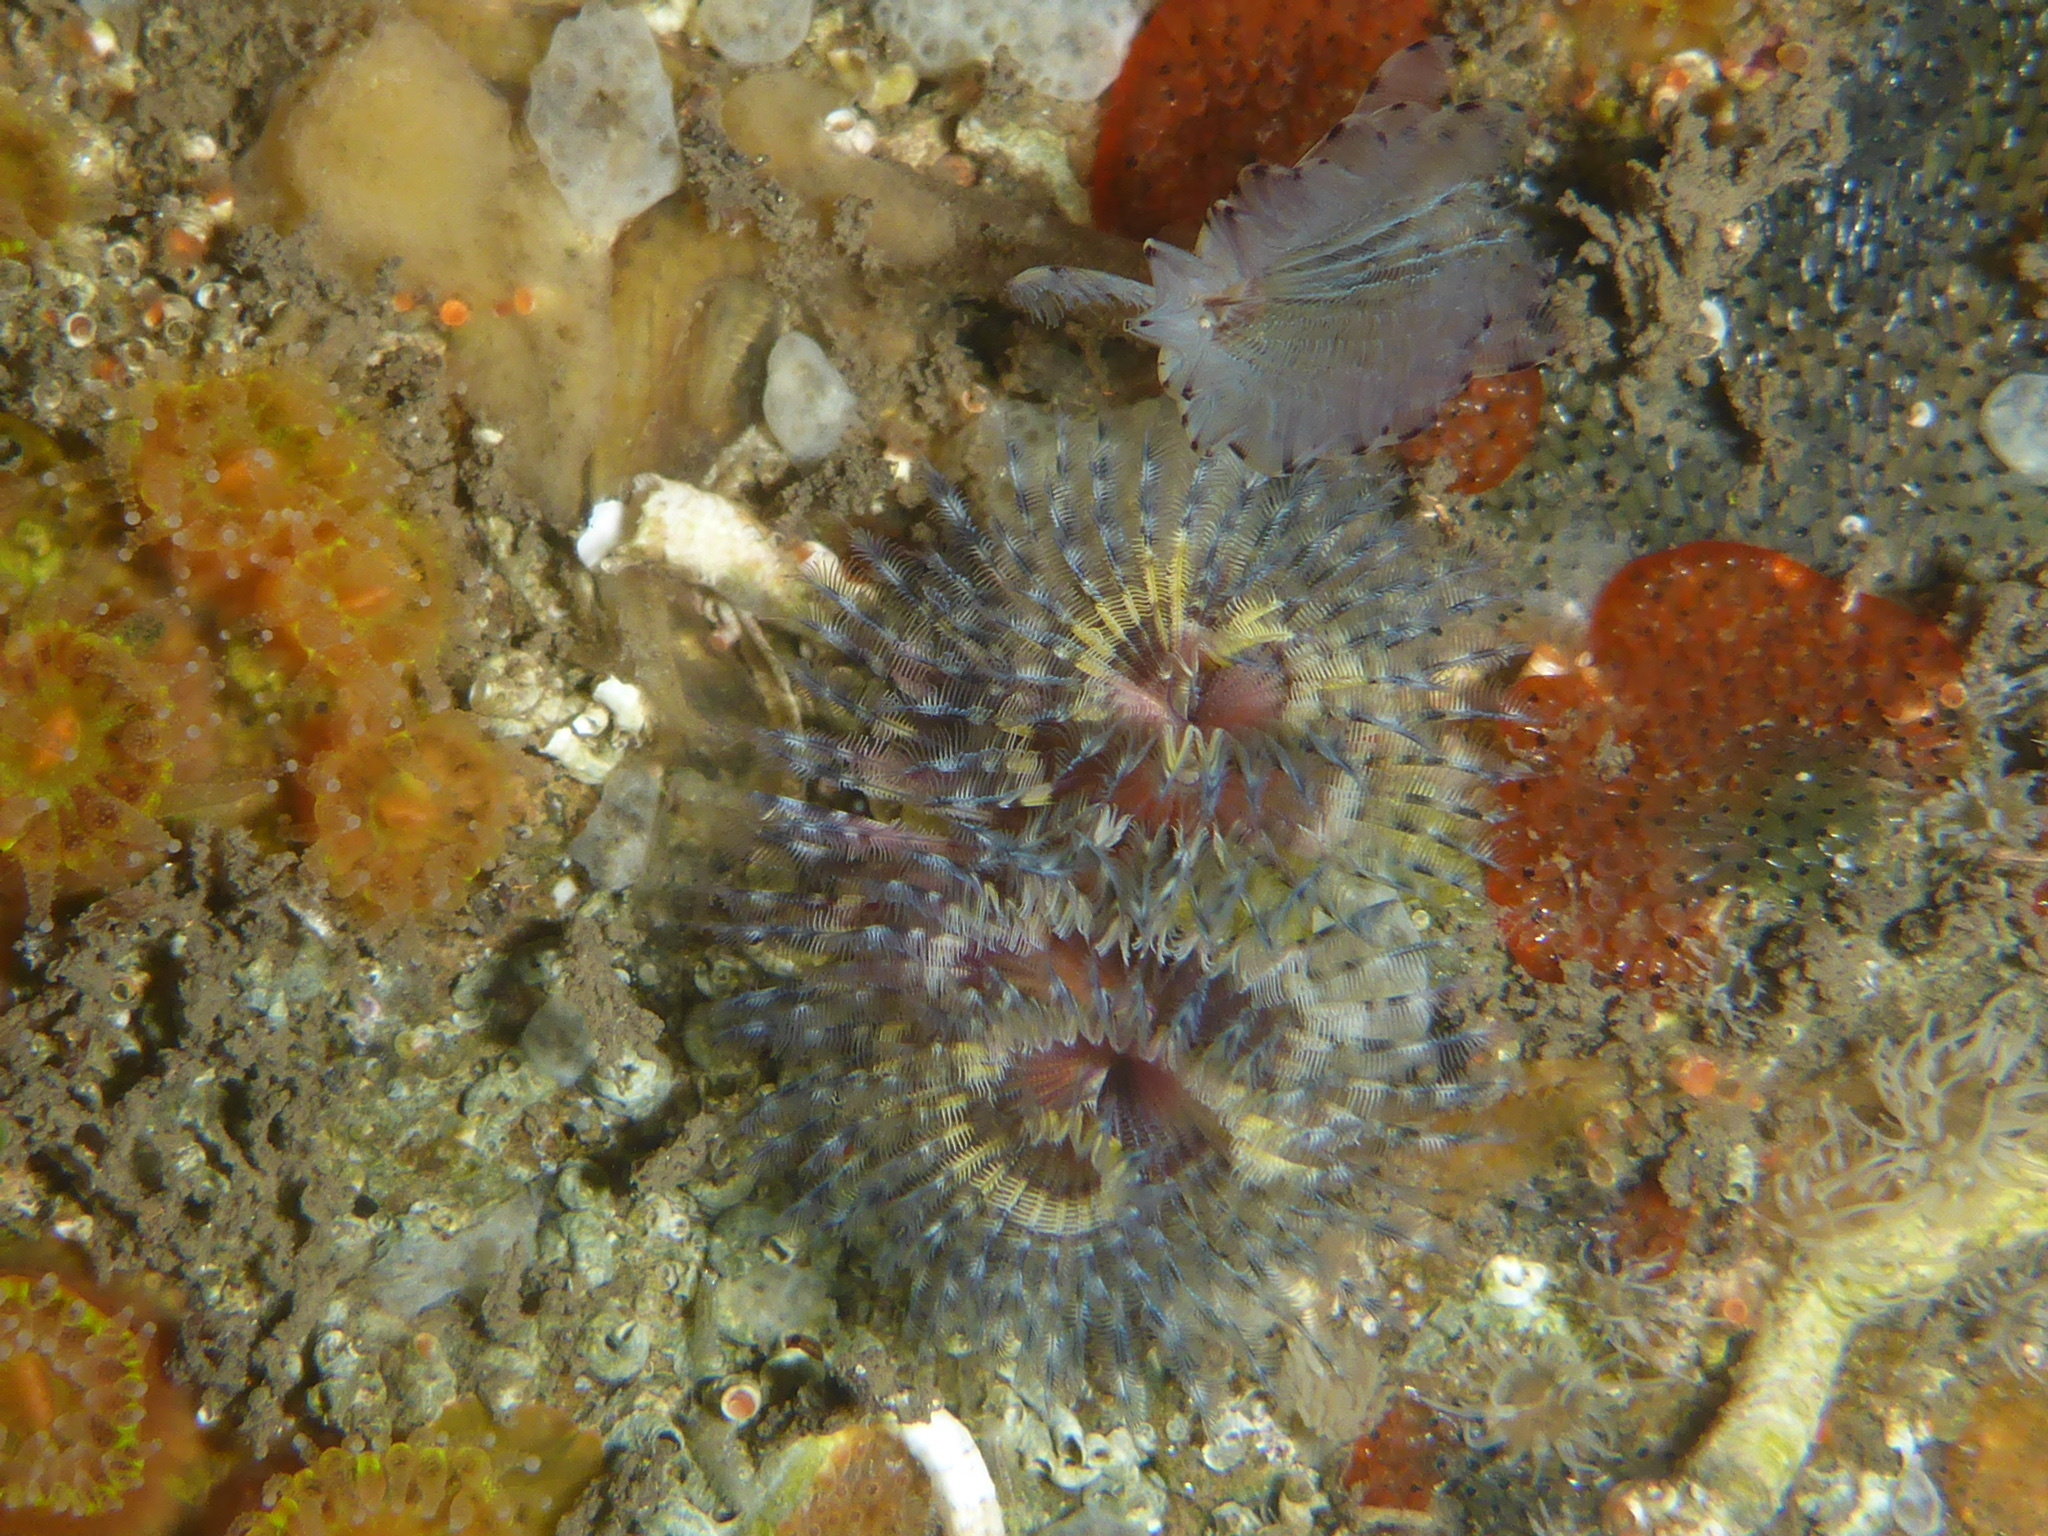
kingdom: Animalia
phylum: Annelida
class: Polychaeta
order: Sabellida
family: Serpulidae
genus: Spirobranchus
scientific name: Spirobranchus spinosus
